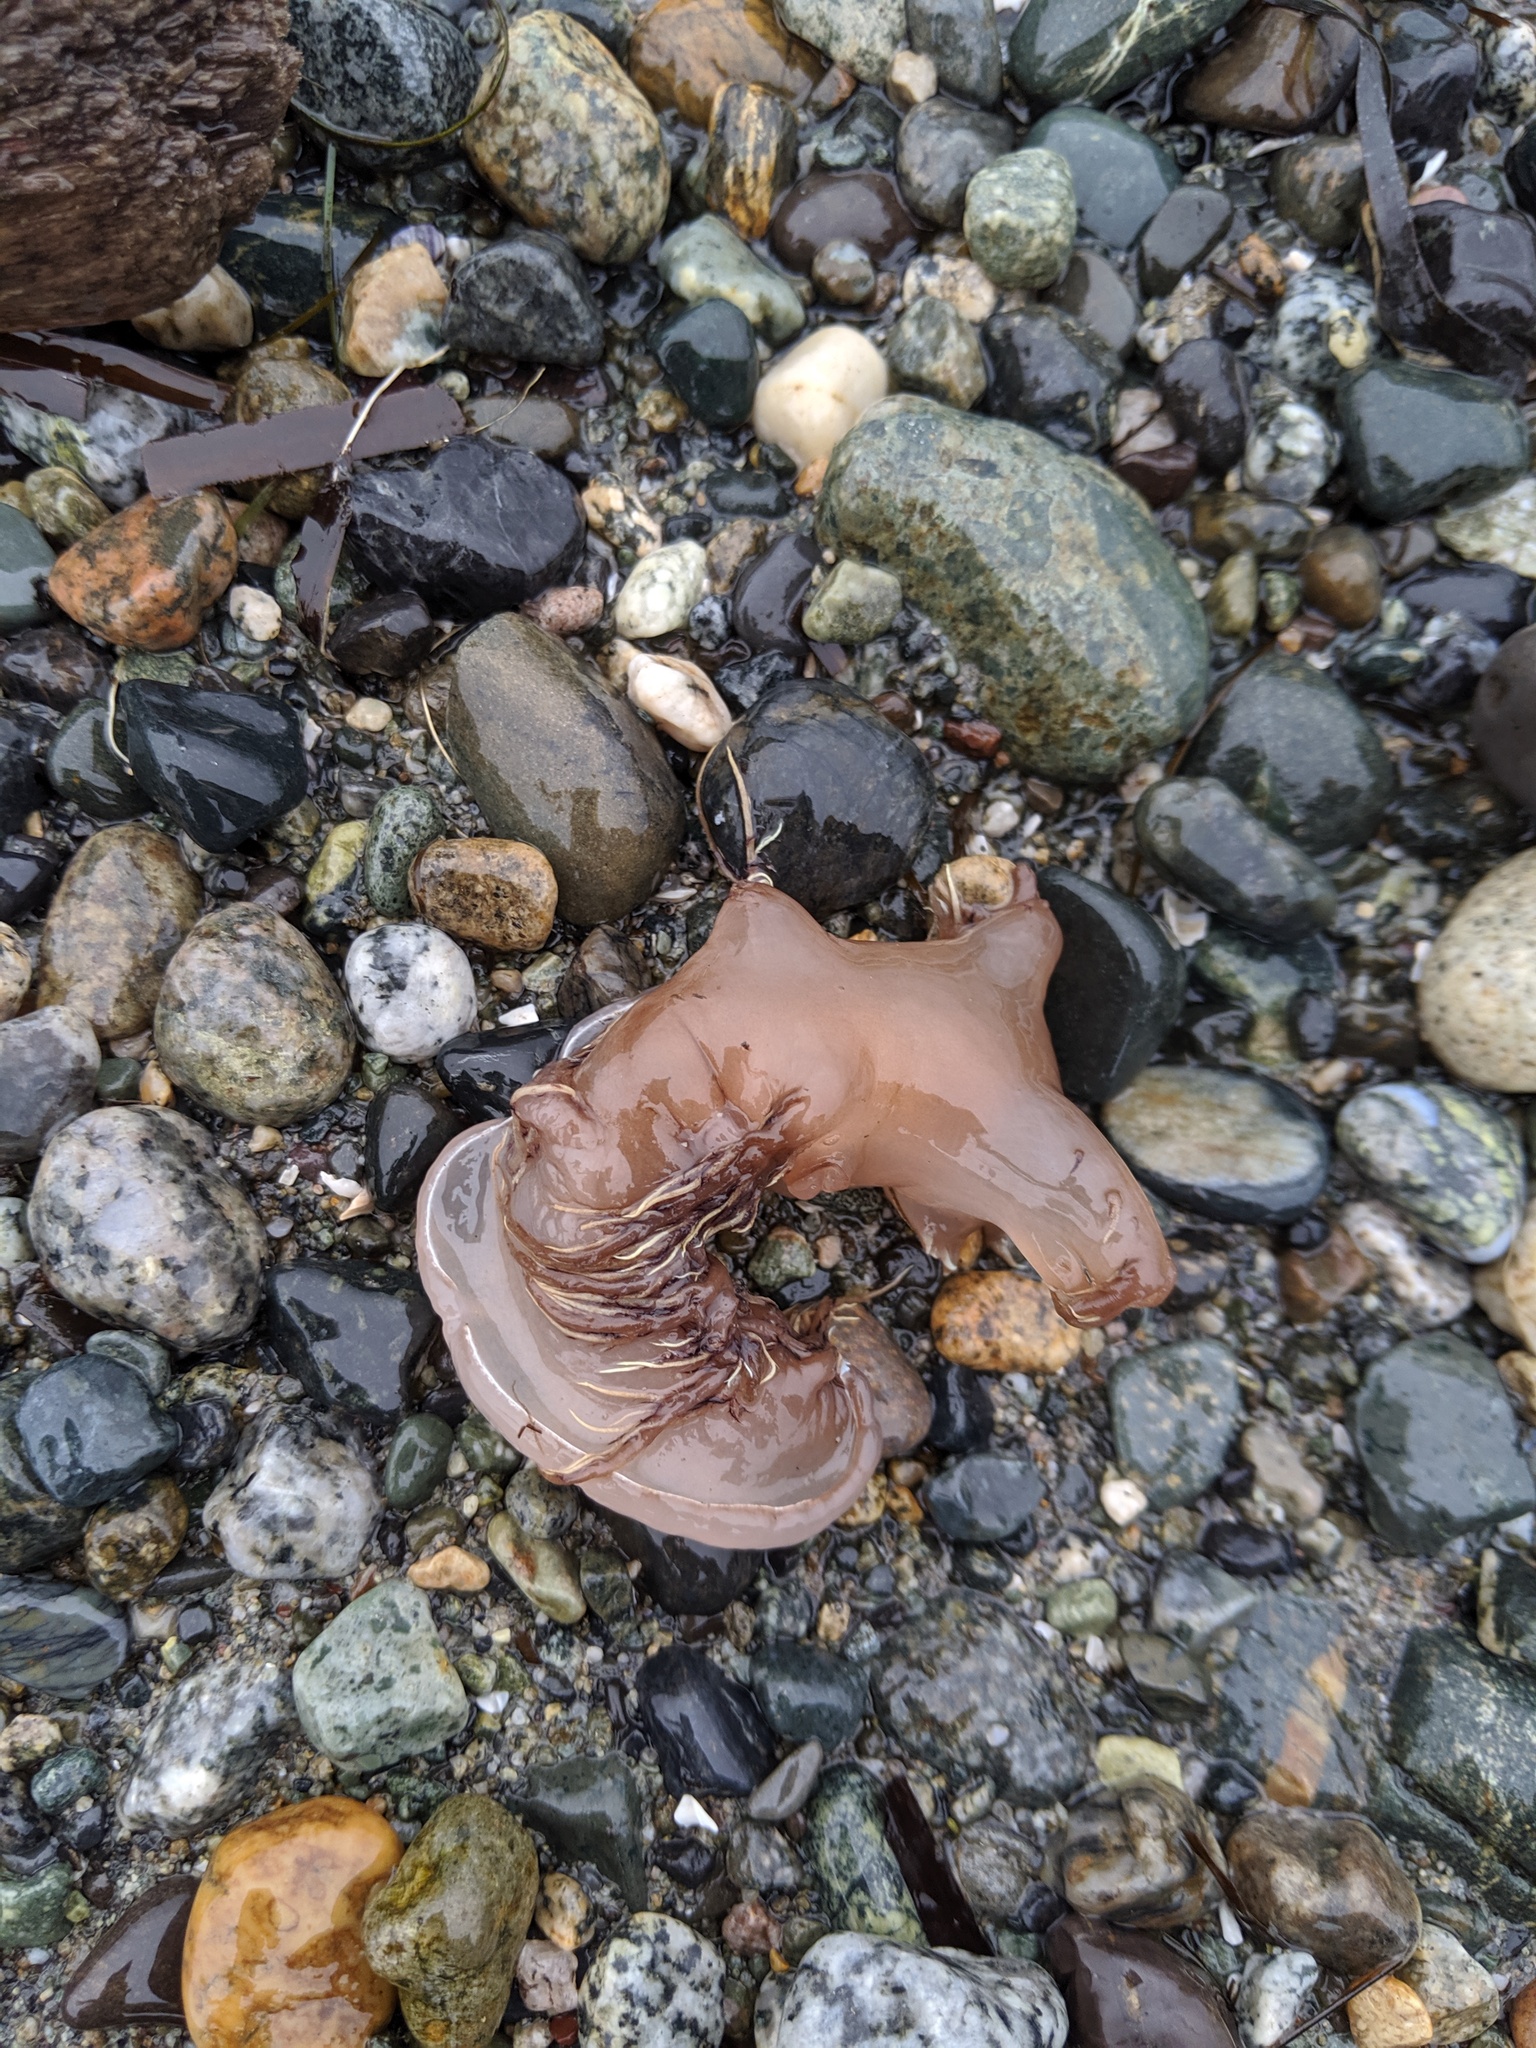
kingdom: Animalia
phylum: Mollusca
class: Gastropoda
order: Nudibranchia
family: Dendronotidae
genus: Dendronotus
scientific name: Dendronotus iris
